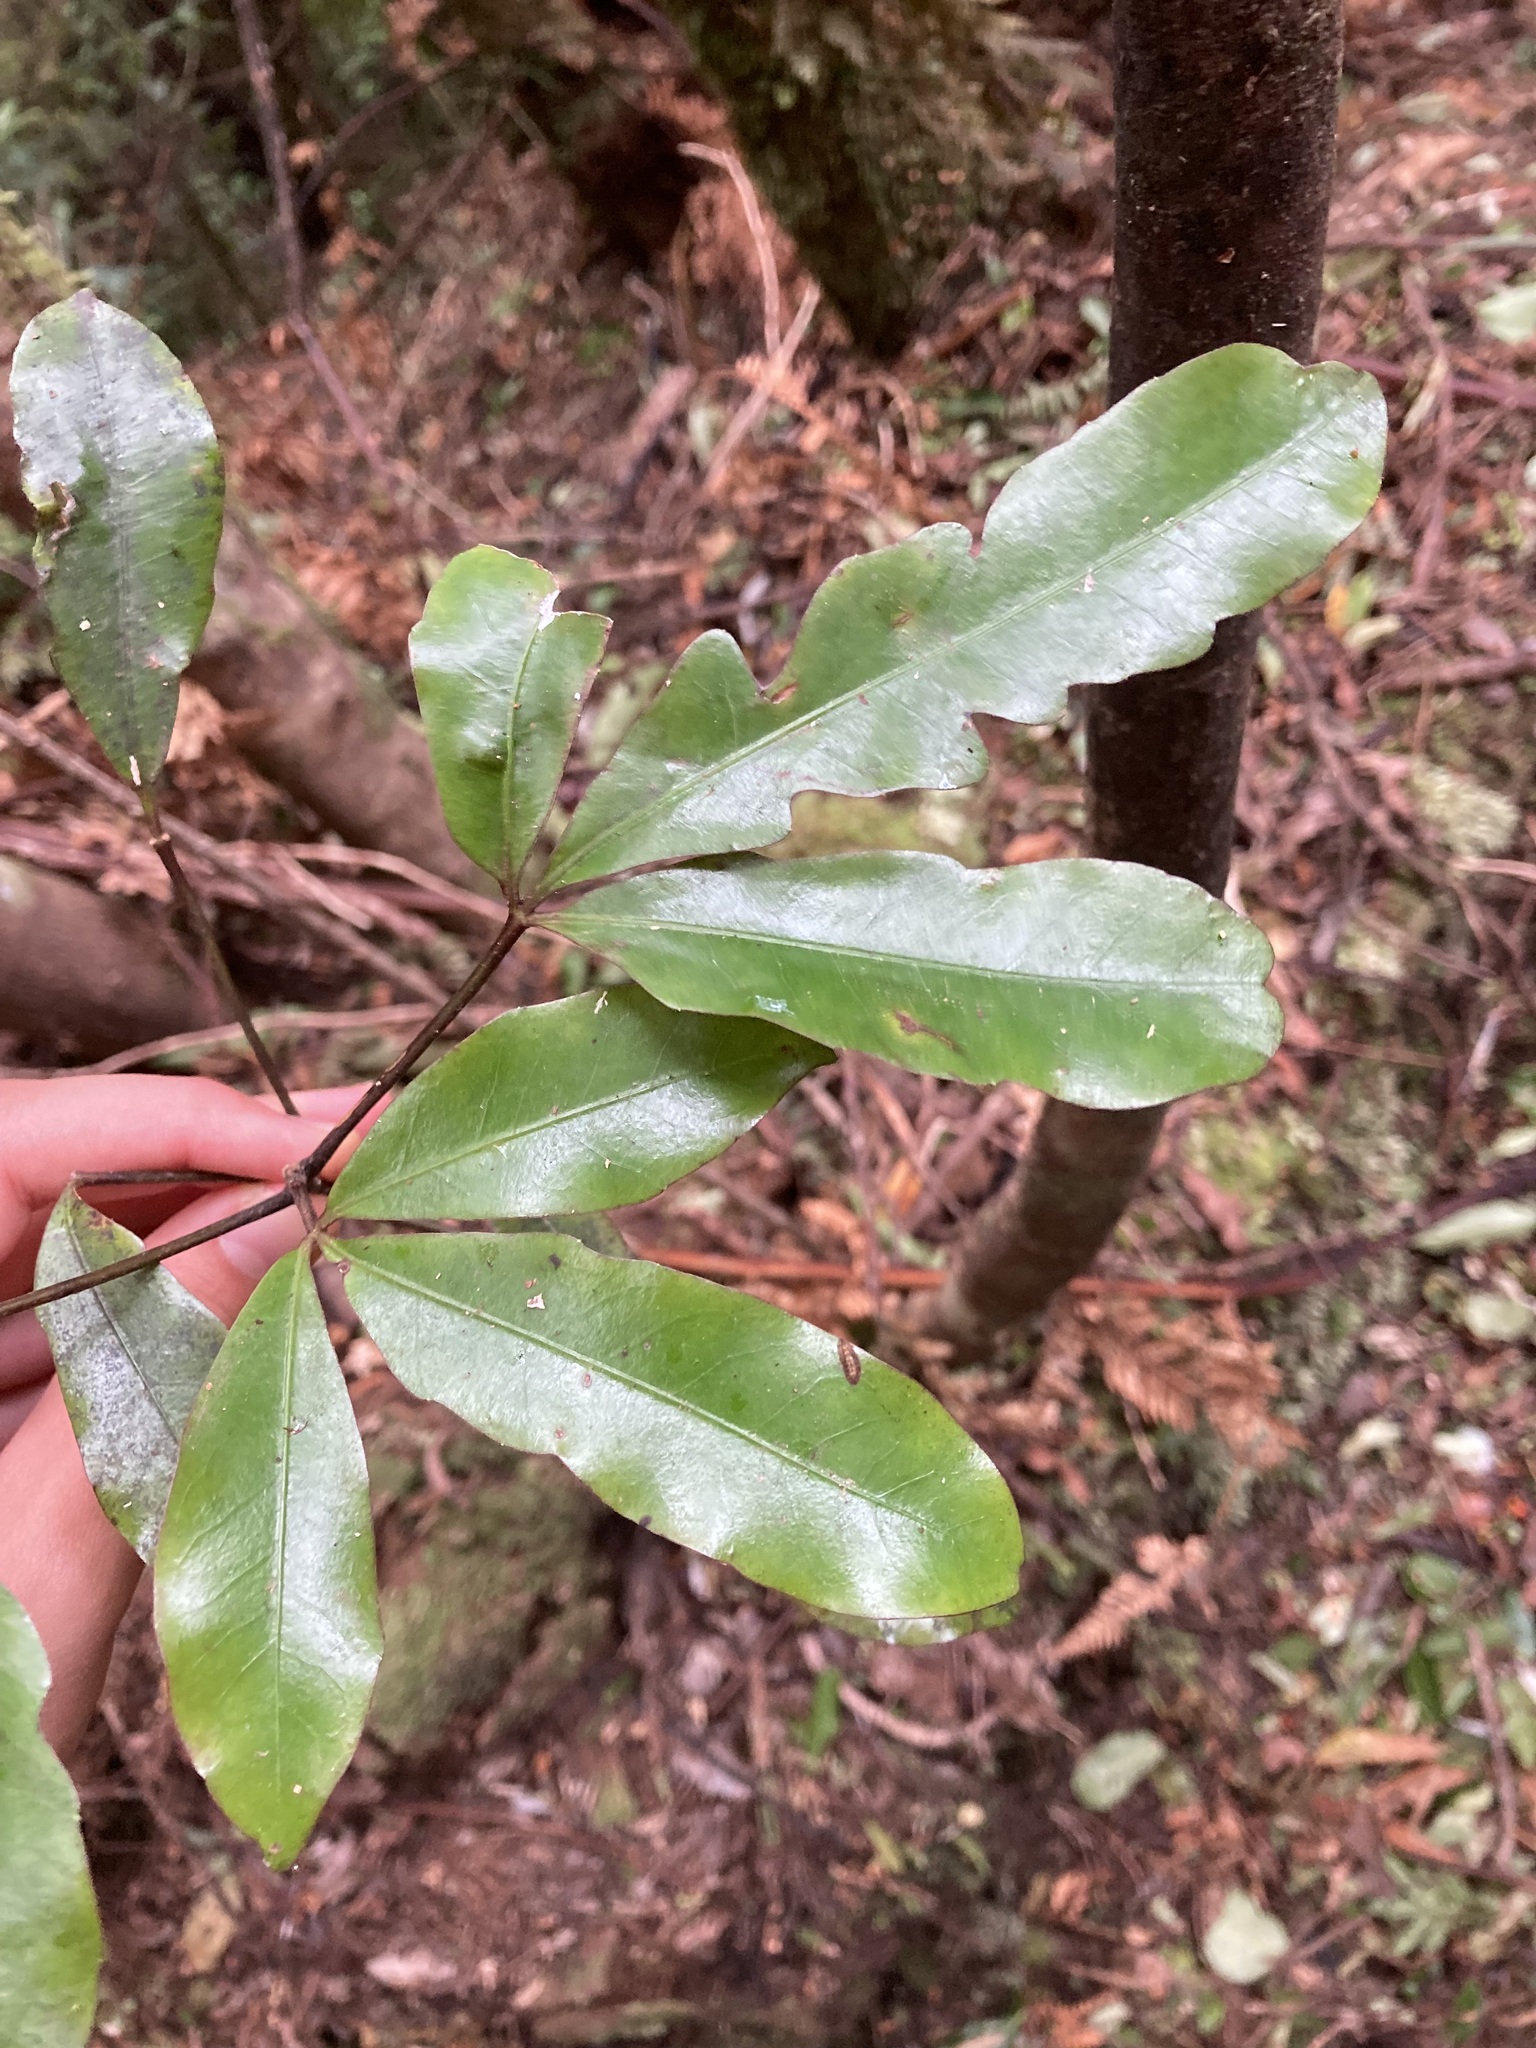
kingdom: Plantae
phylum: Tracheophyta
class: Magnoliopsida
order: Apiales
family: Araliaceae
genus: Raukaua
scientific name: Raukaua edgerleyi
